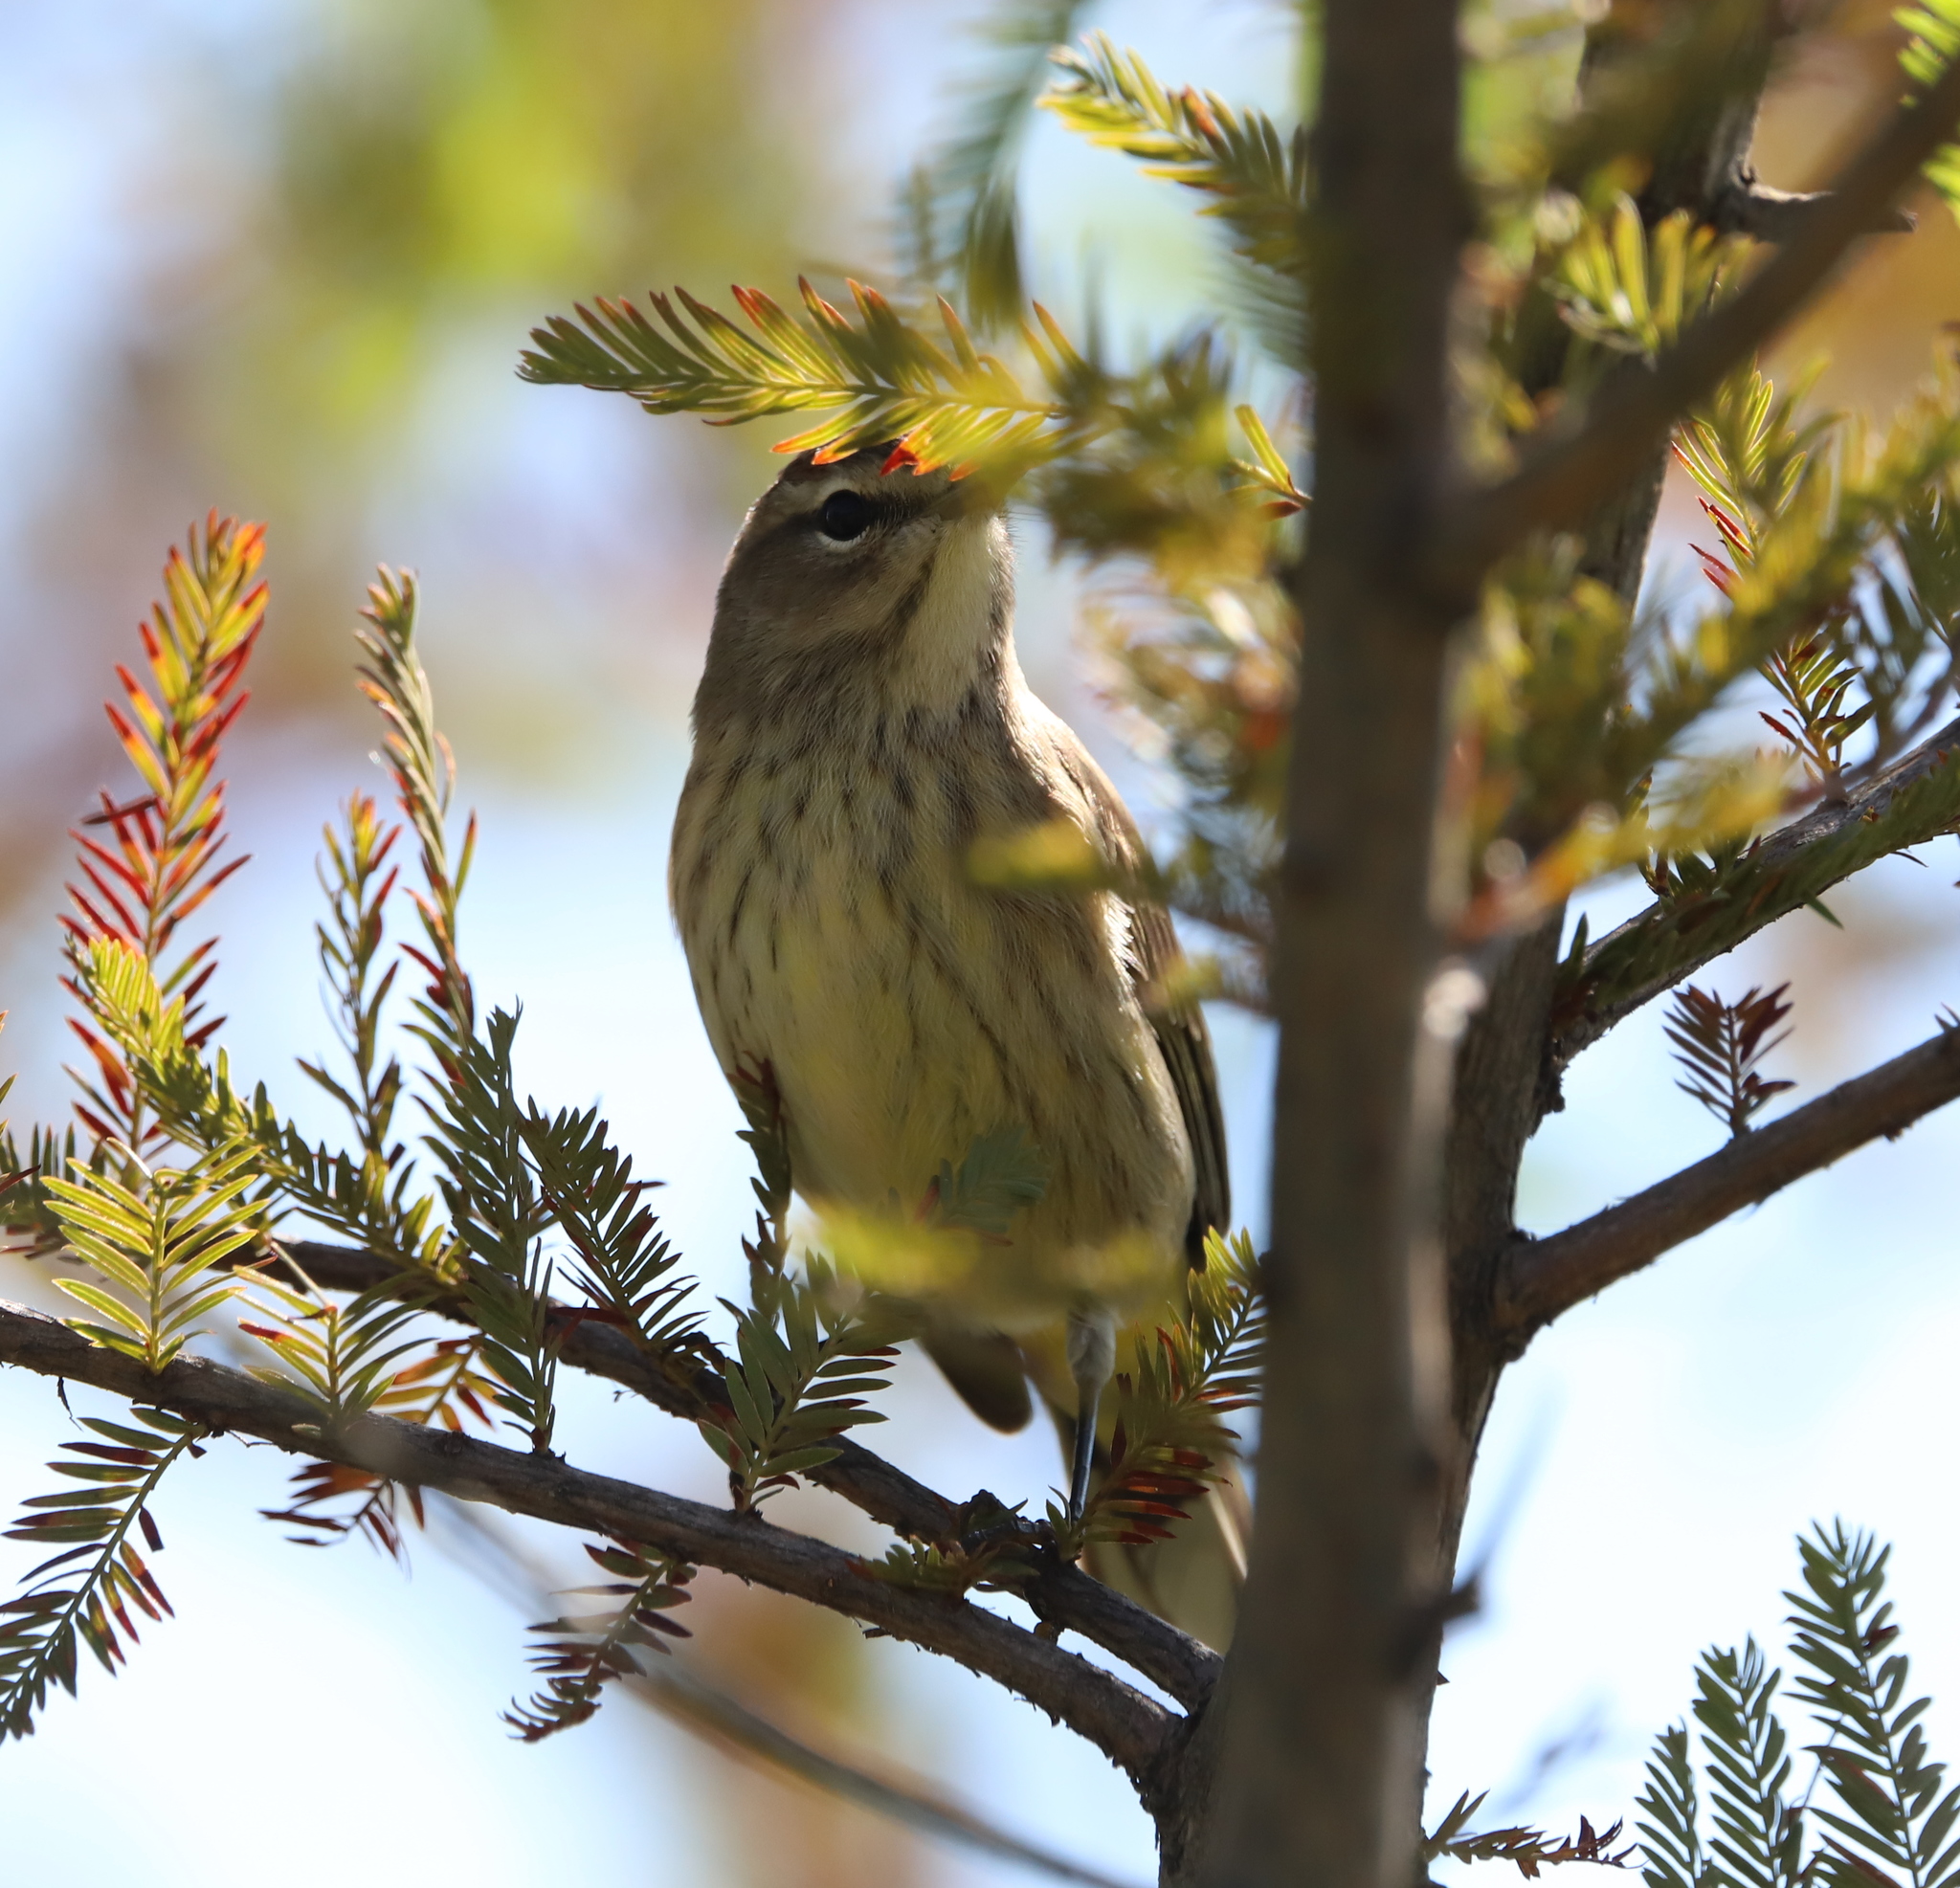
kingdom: Animalia
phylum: Chordata
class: Aves
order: Passeriformes
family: Parulidae
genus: Setophaga
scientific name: Setophaga palmarum
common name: Palm warbler
